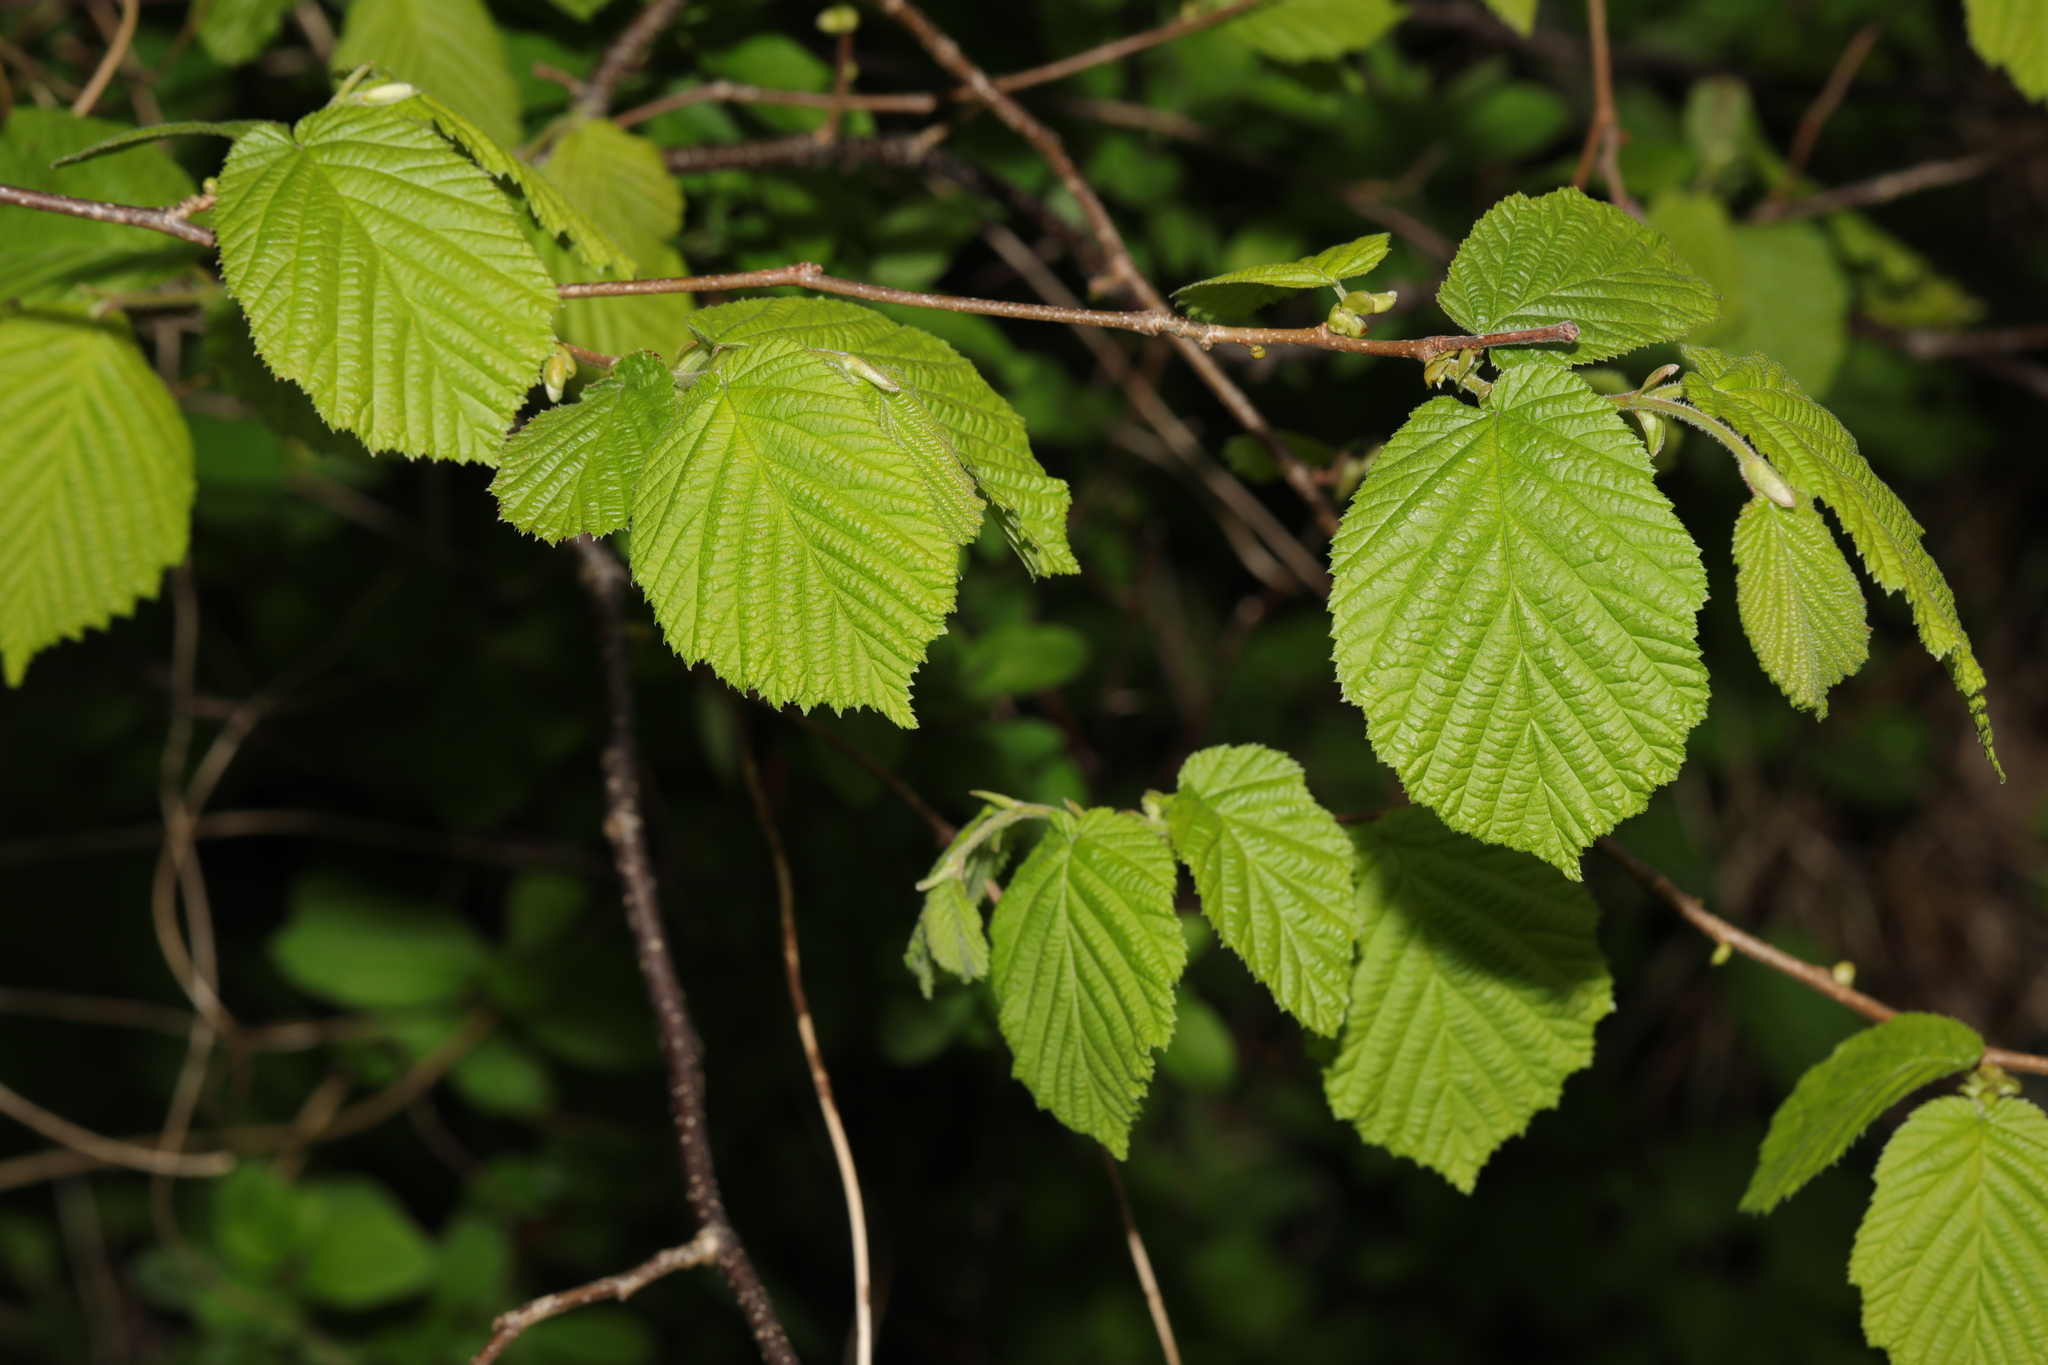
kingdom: Plantae
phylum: Tracheophyta
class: Magnoliopsida
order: Fagales
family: Betulaceae
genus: Corylus
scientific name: Corylus avellana
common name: European hazel
